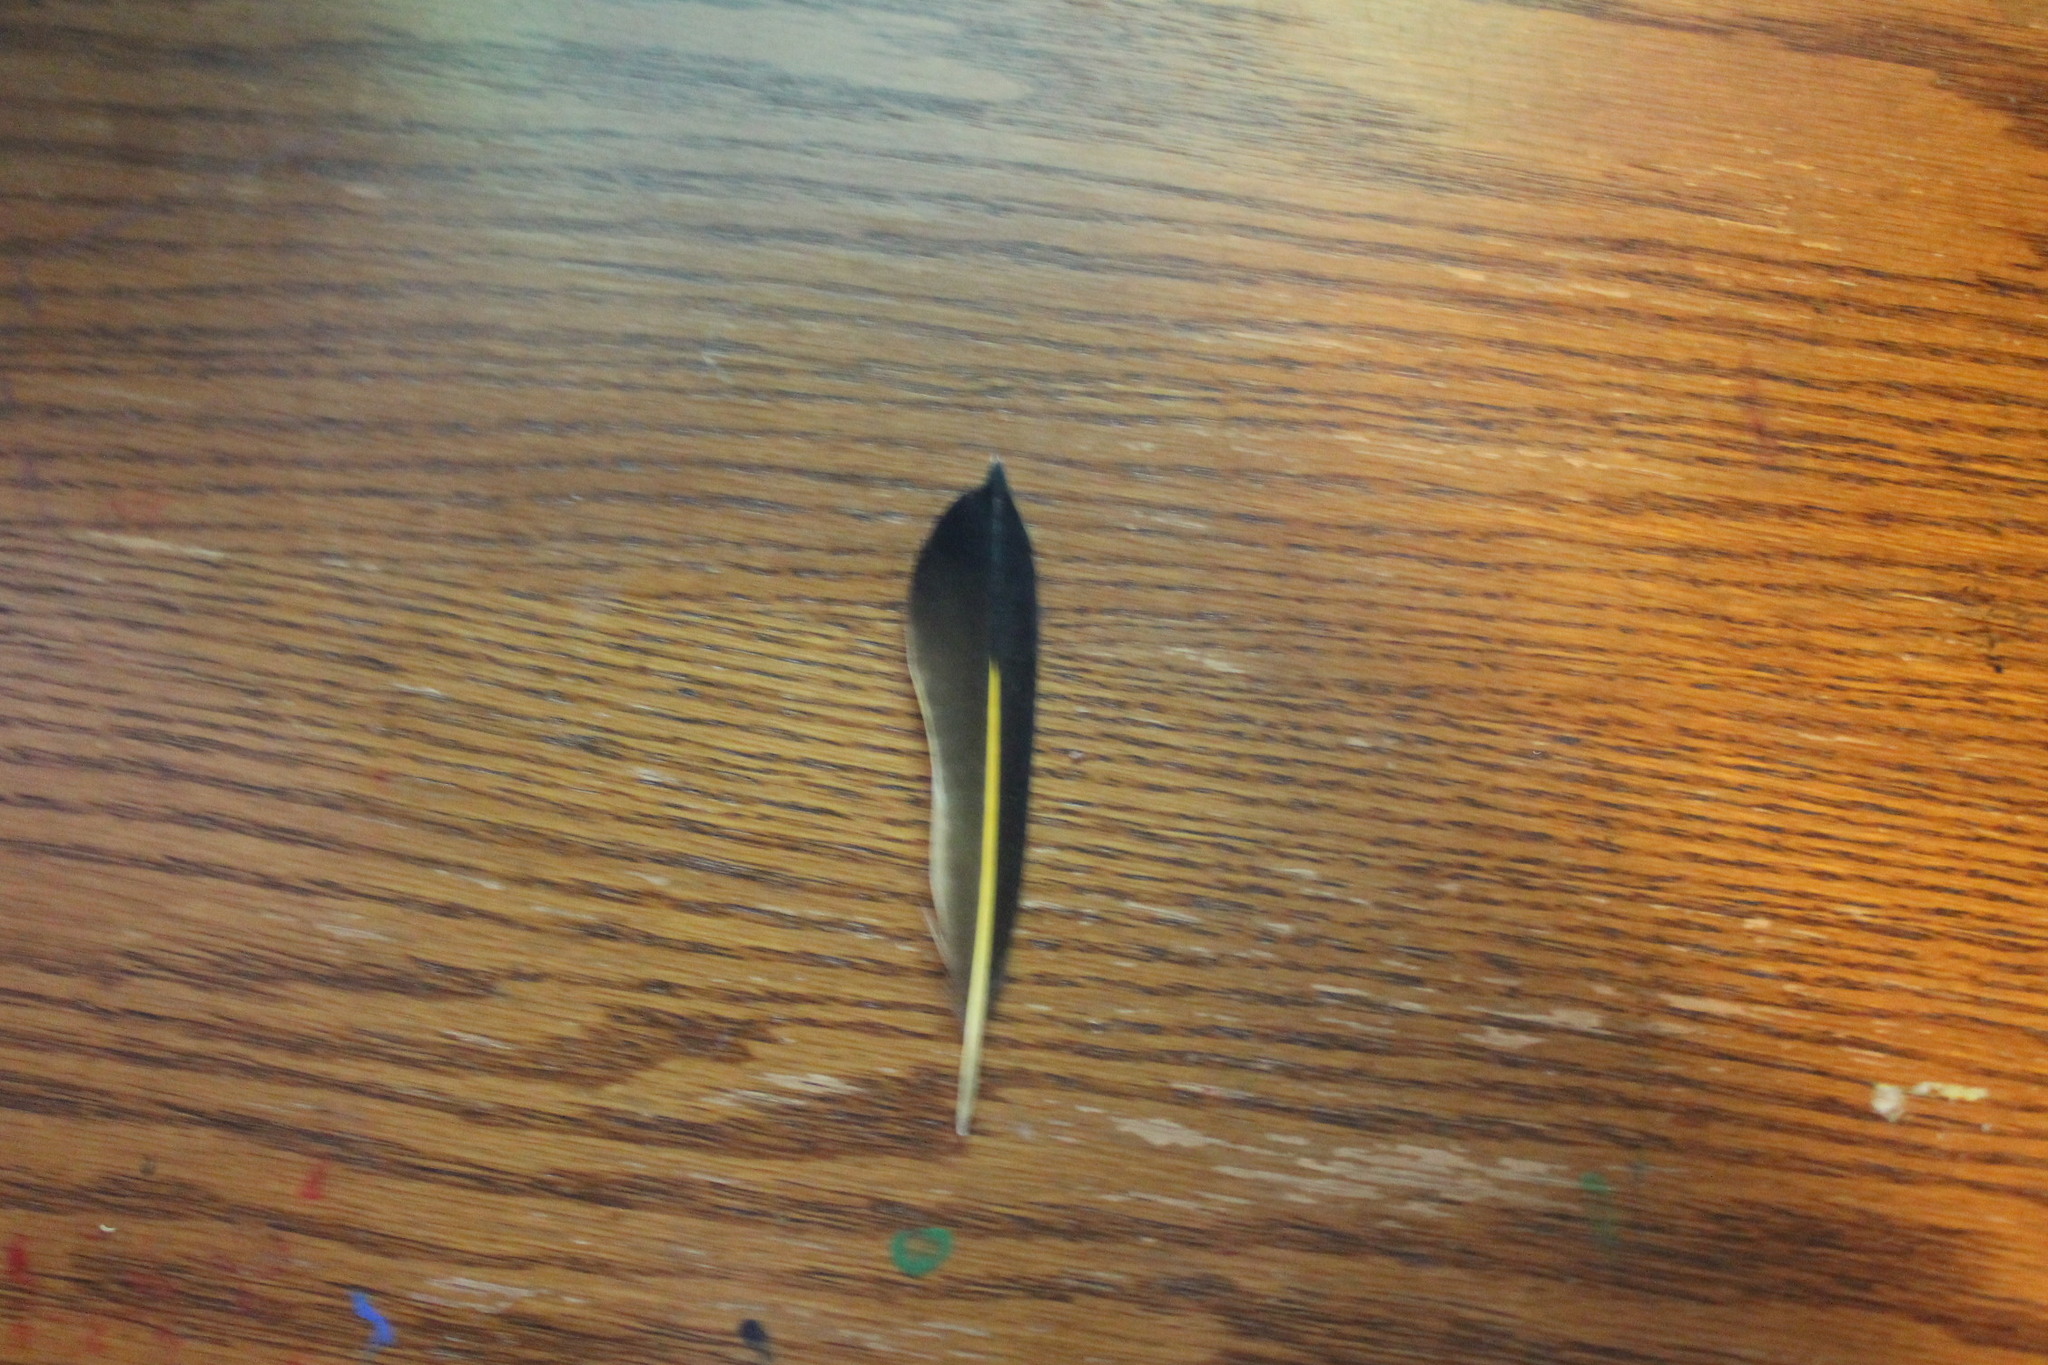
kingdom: Animalia
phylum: Chordata
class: Aves
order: Piciformes
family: Picidae
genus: Colaptes
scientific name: Colaptes auratus
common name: Northern flicker
